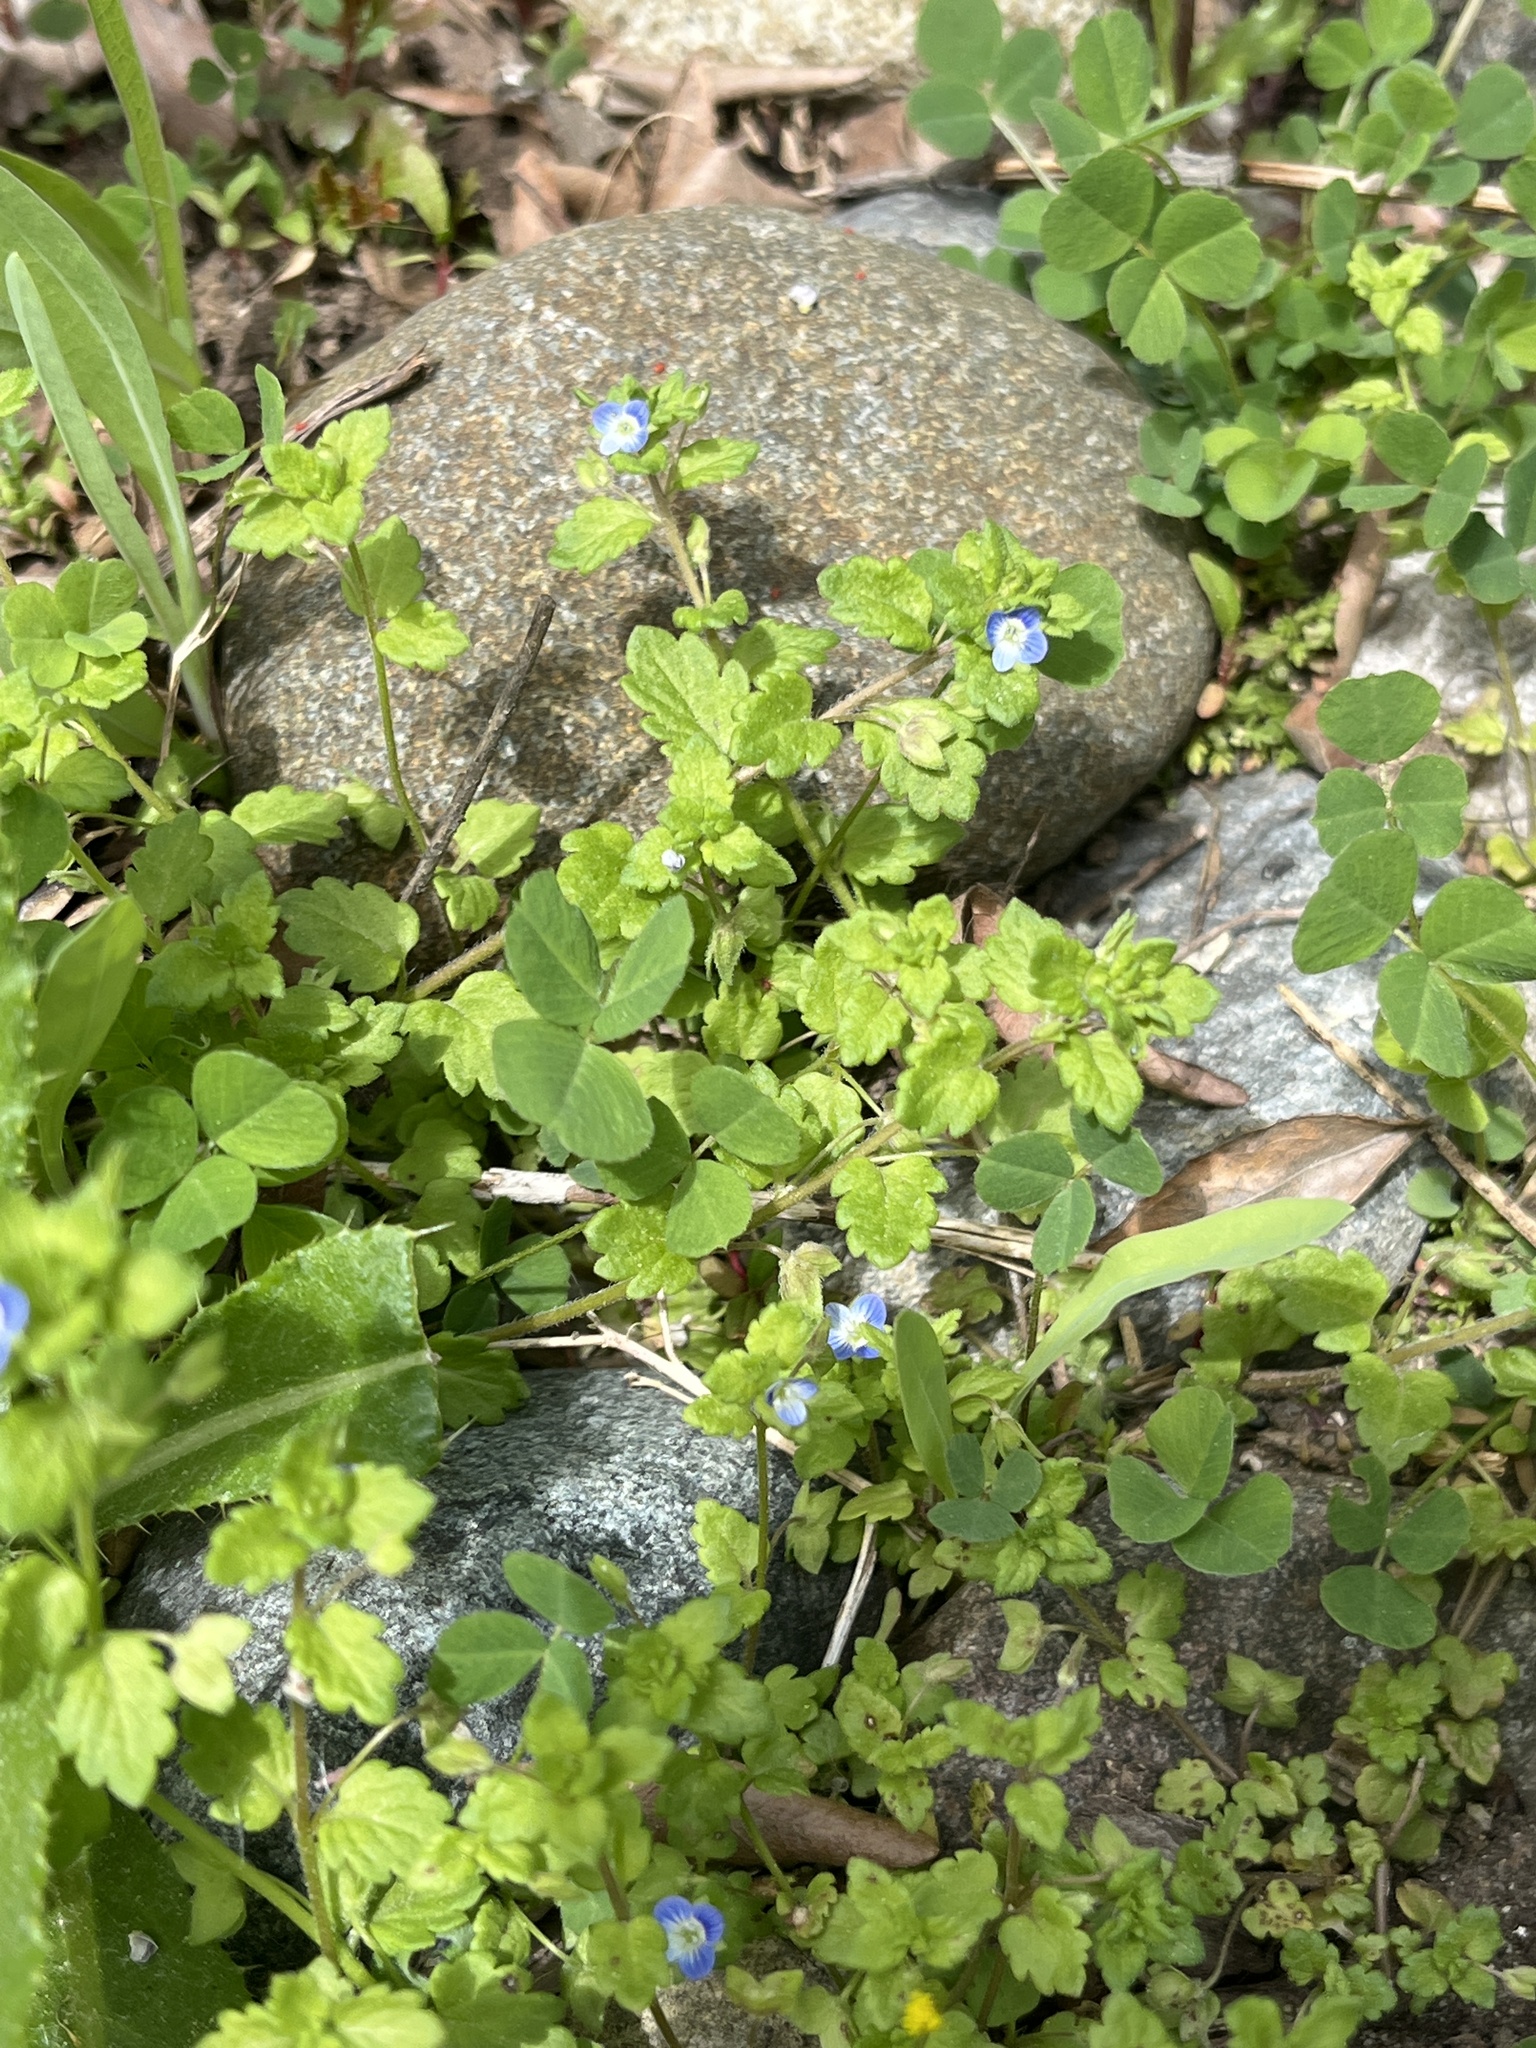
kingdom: Plantae
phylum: Tracheophyta
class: Magnoliopsida
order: Lamiales
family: Plantaginaceae
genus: Veronica
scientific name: Veronica polita
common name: Grey field-speedwell
